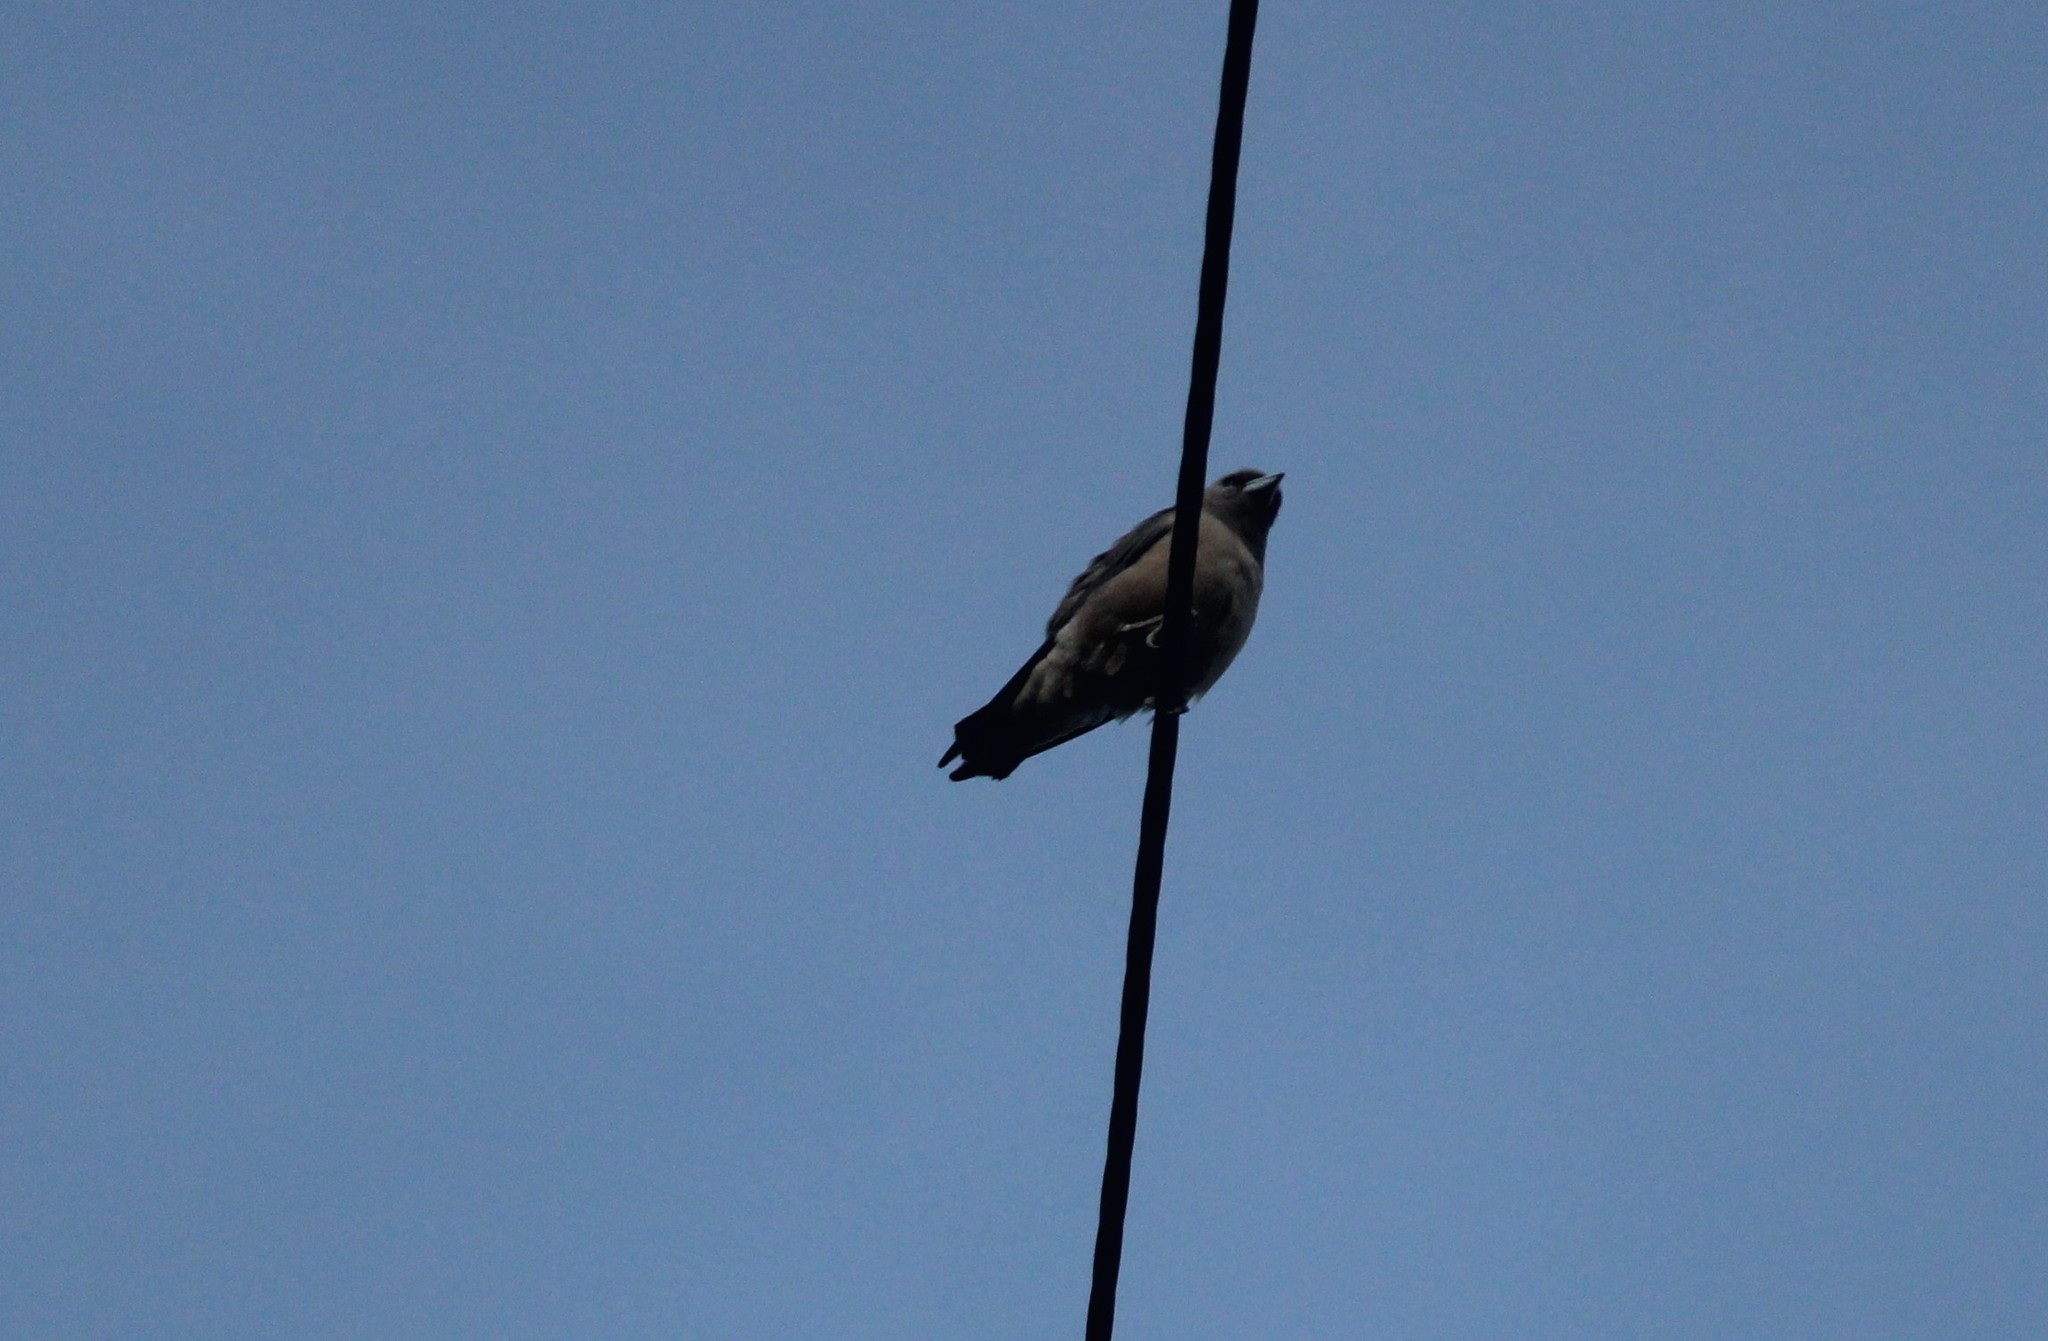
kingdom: Animalia
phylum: Chordata
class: Aves
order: Passeriformes
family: Artamidae
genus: Artamus
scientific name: Artamus fuscus
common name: Ashy woodswallow
